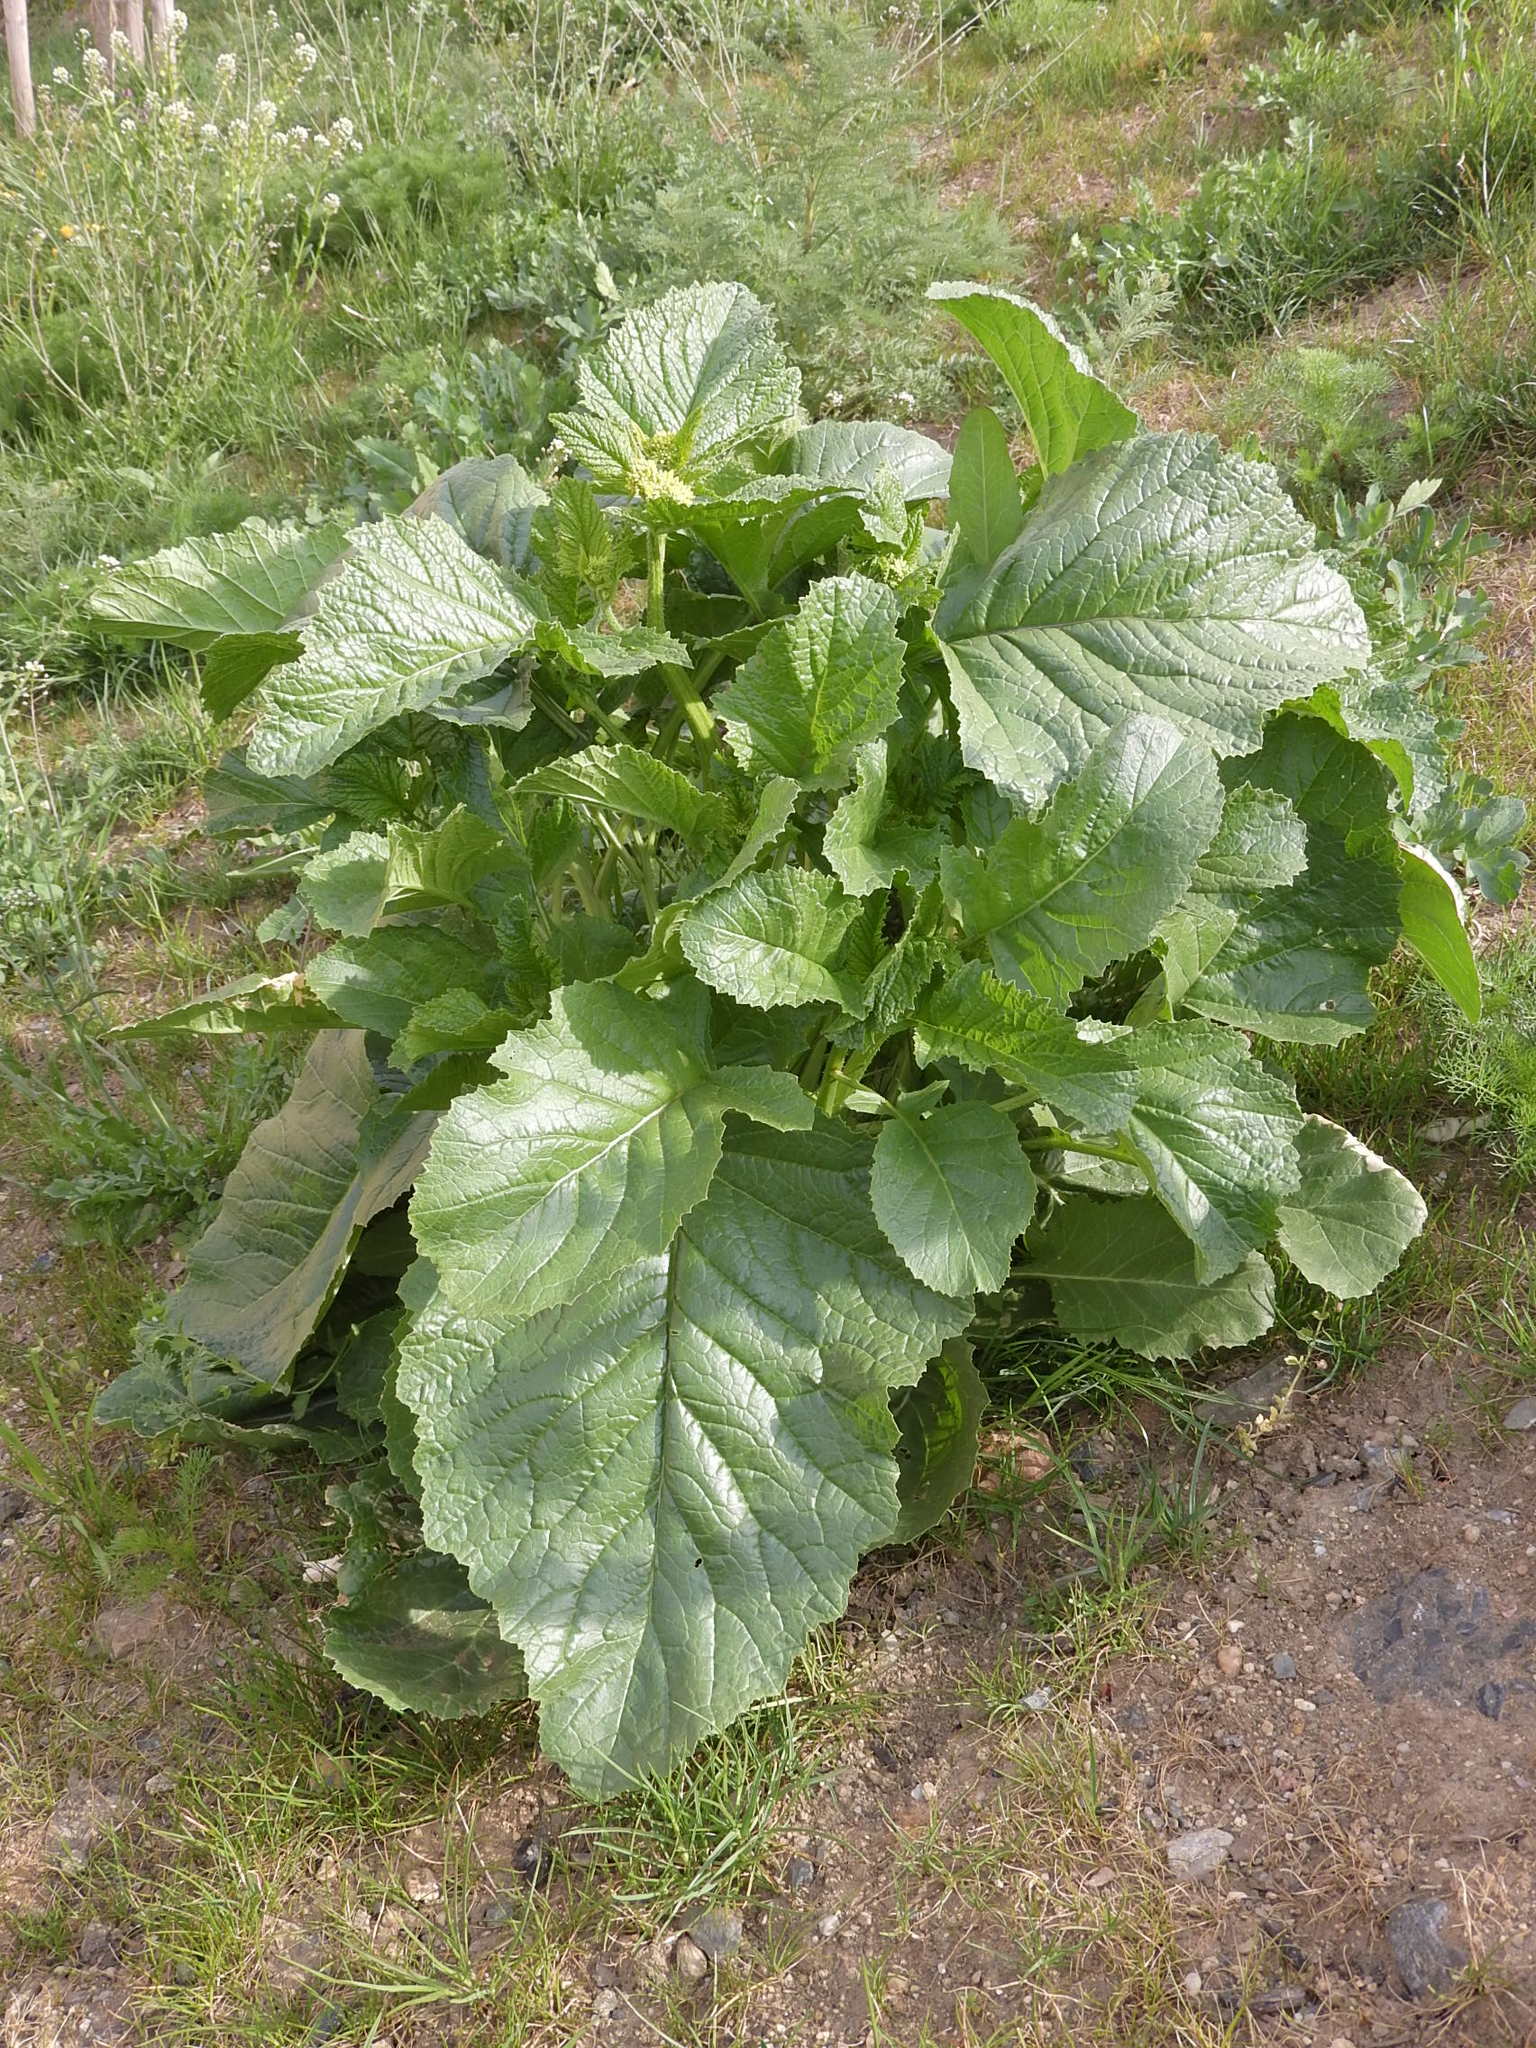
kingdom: Plantae
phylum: Tracheophyta
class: Magnoliopsida
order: Brassicales
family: Brassicaceae
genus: Sinapis
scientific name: Sinapis arvensis
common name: Charlock
